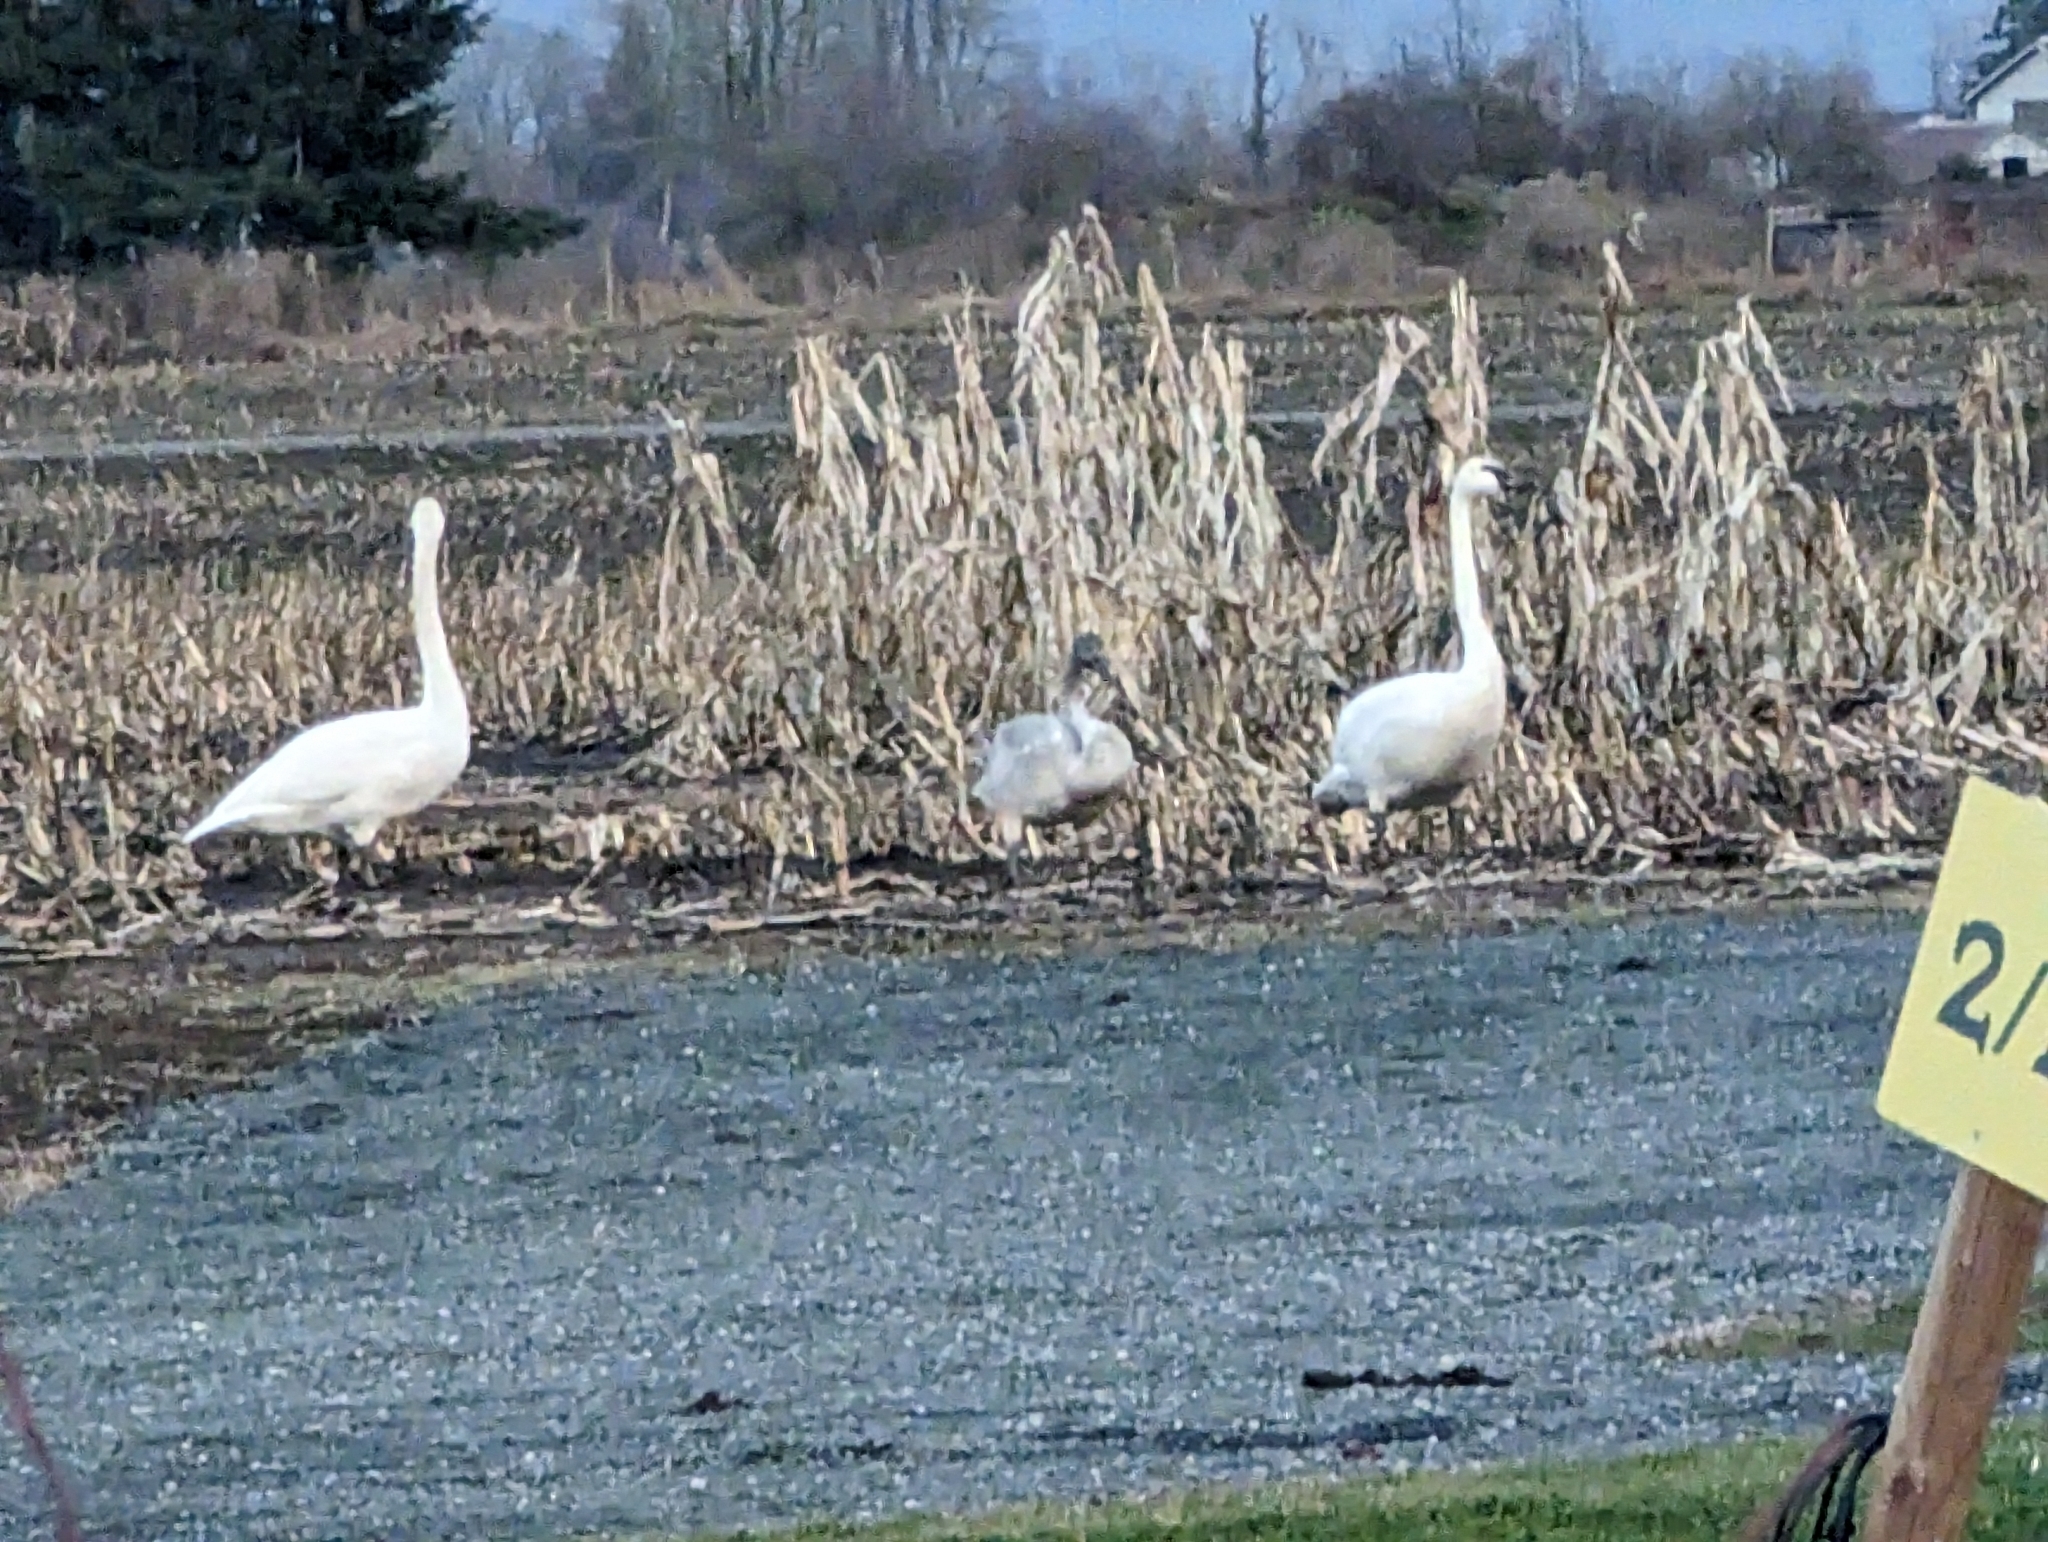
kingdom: Animalia
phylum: Chordata
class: Aves
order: Anseriformes
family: Anatidae
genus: Cygnus
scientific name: Cygnus buccinator
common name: Trumpeter swan
